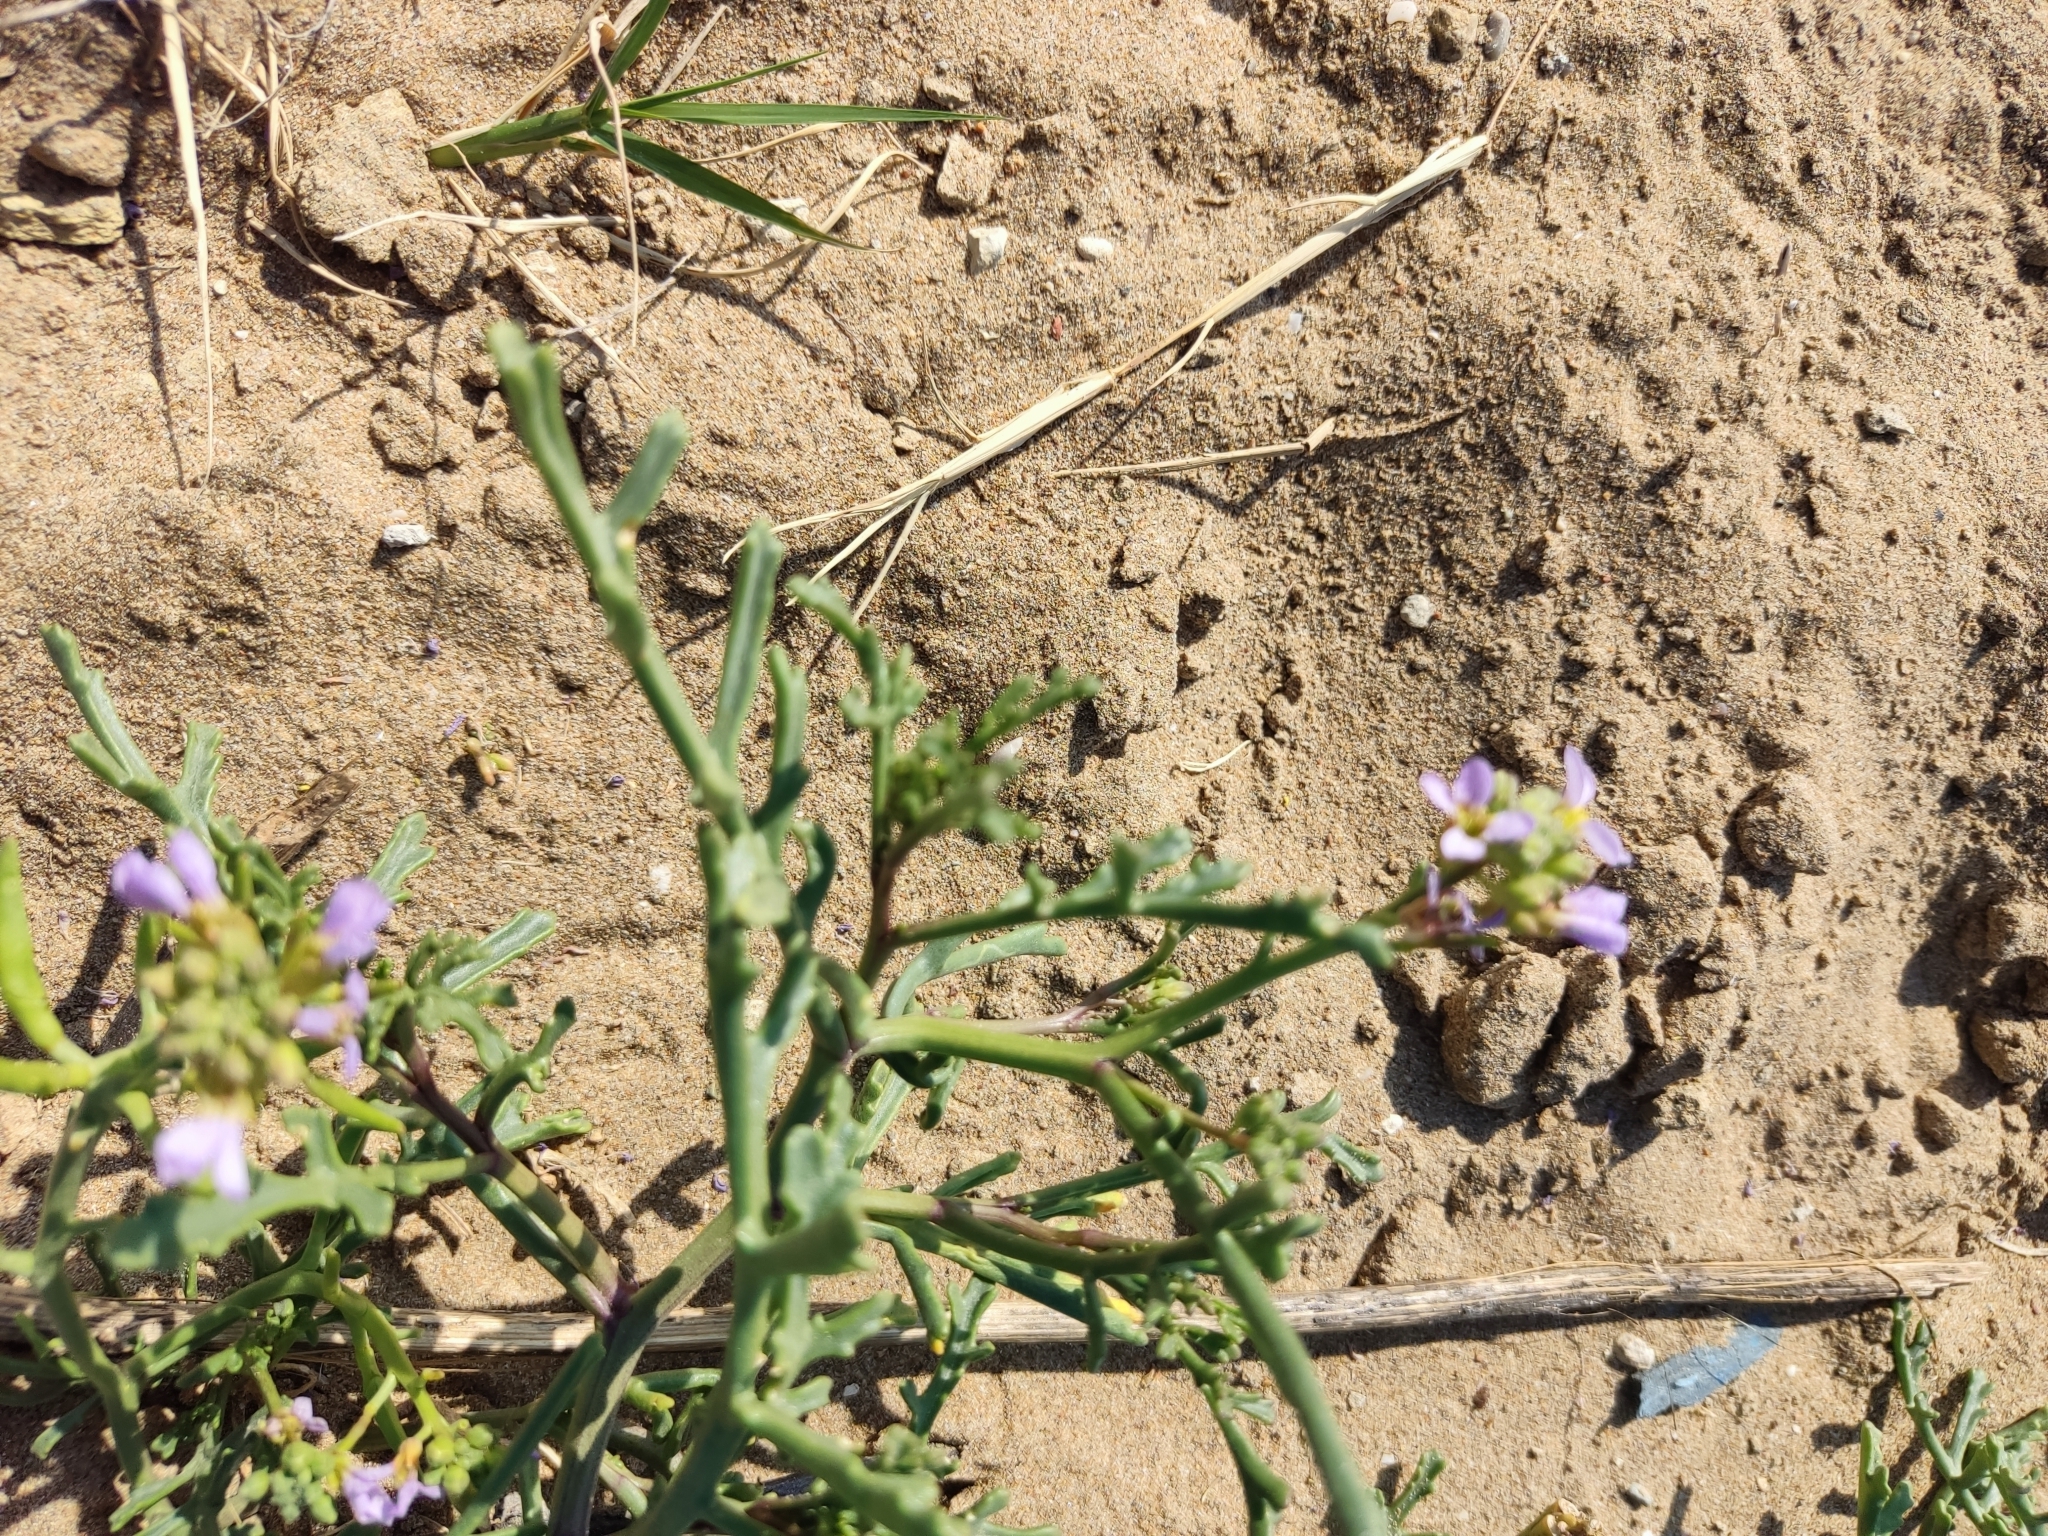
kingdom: Plantae
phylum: Tracheophyta
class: Magnoliopsida
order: Brassicales
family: Brassicaceae
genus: Cakile
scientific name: Cakile maritima
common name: Sea rocket
